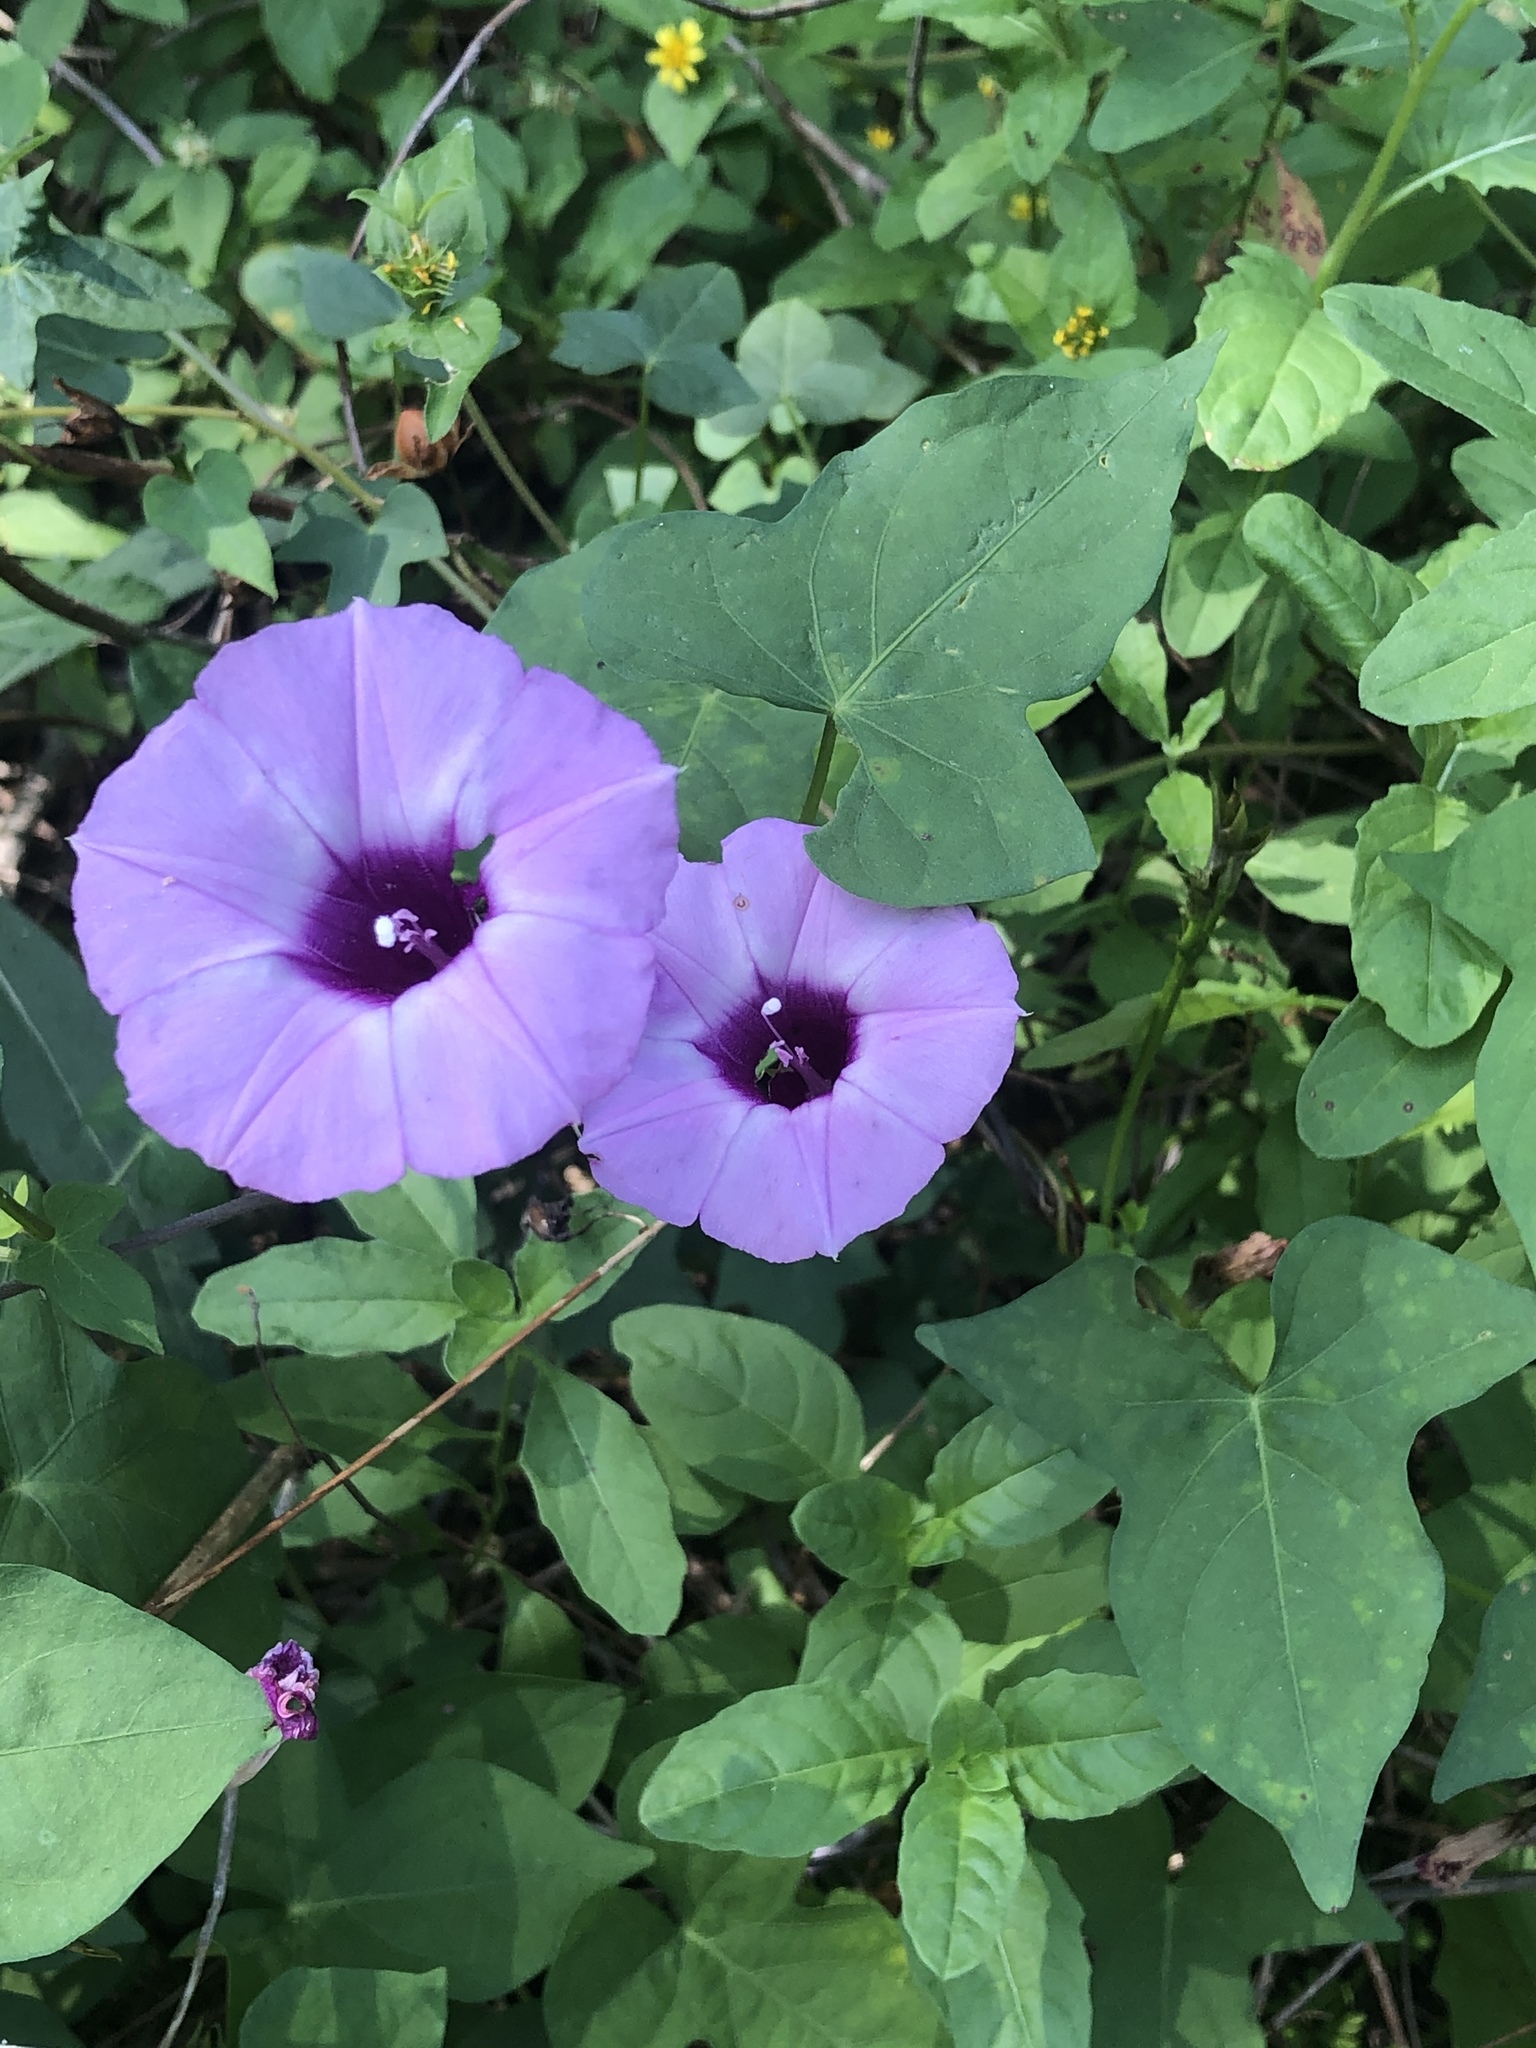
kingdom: Plantae
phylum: Tracheophyta
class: Magnoliopsida
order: Solanales
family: Convolvulaceae
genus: Ipomoea
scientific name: Ipomoea cordatotriloba
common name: Cotton morning glory
